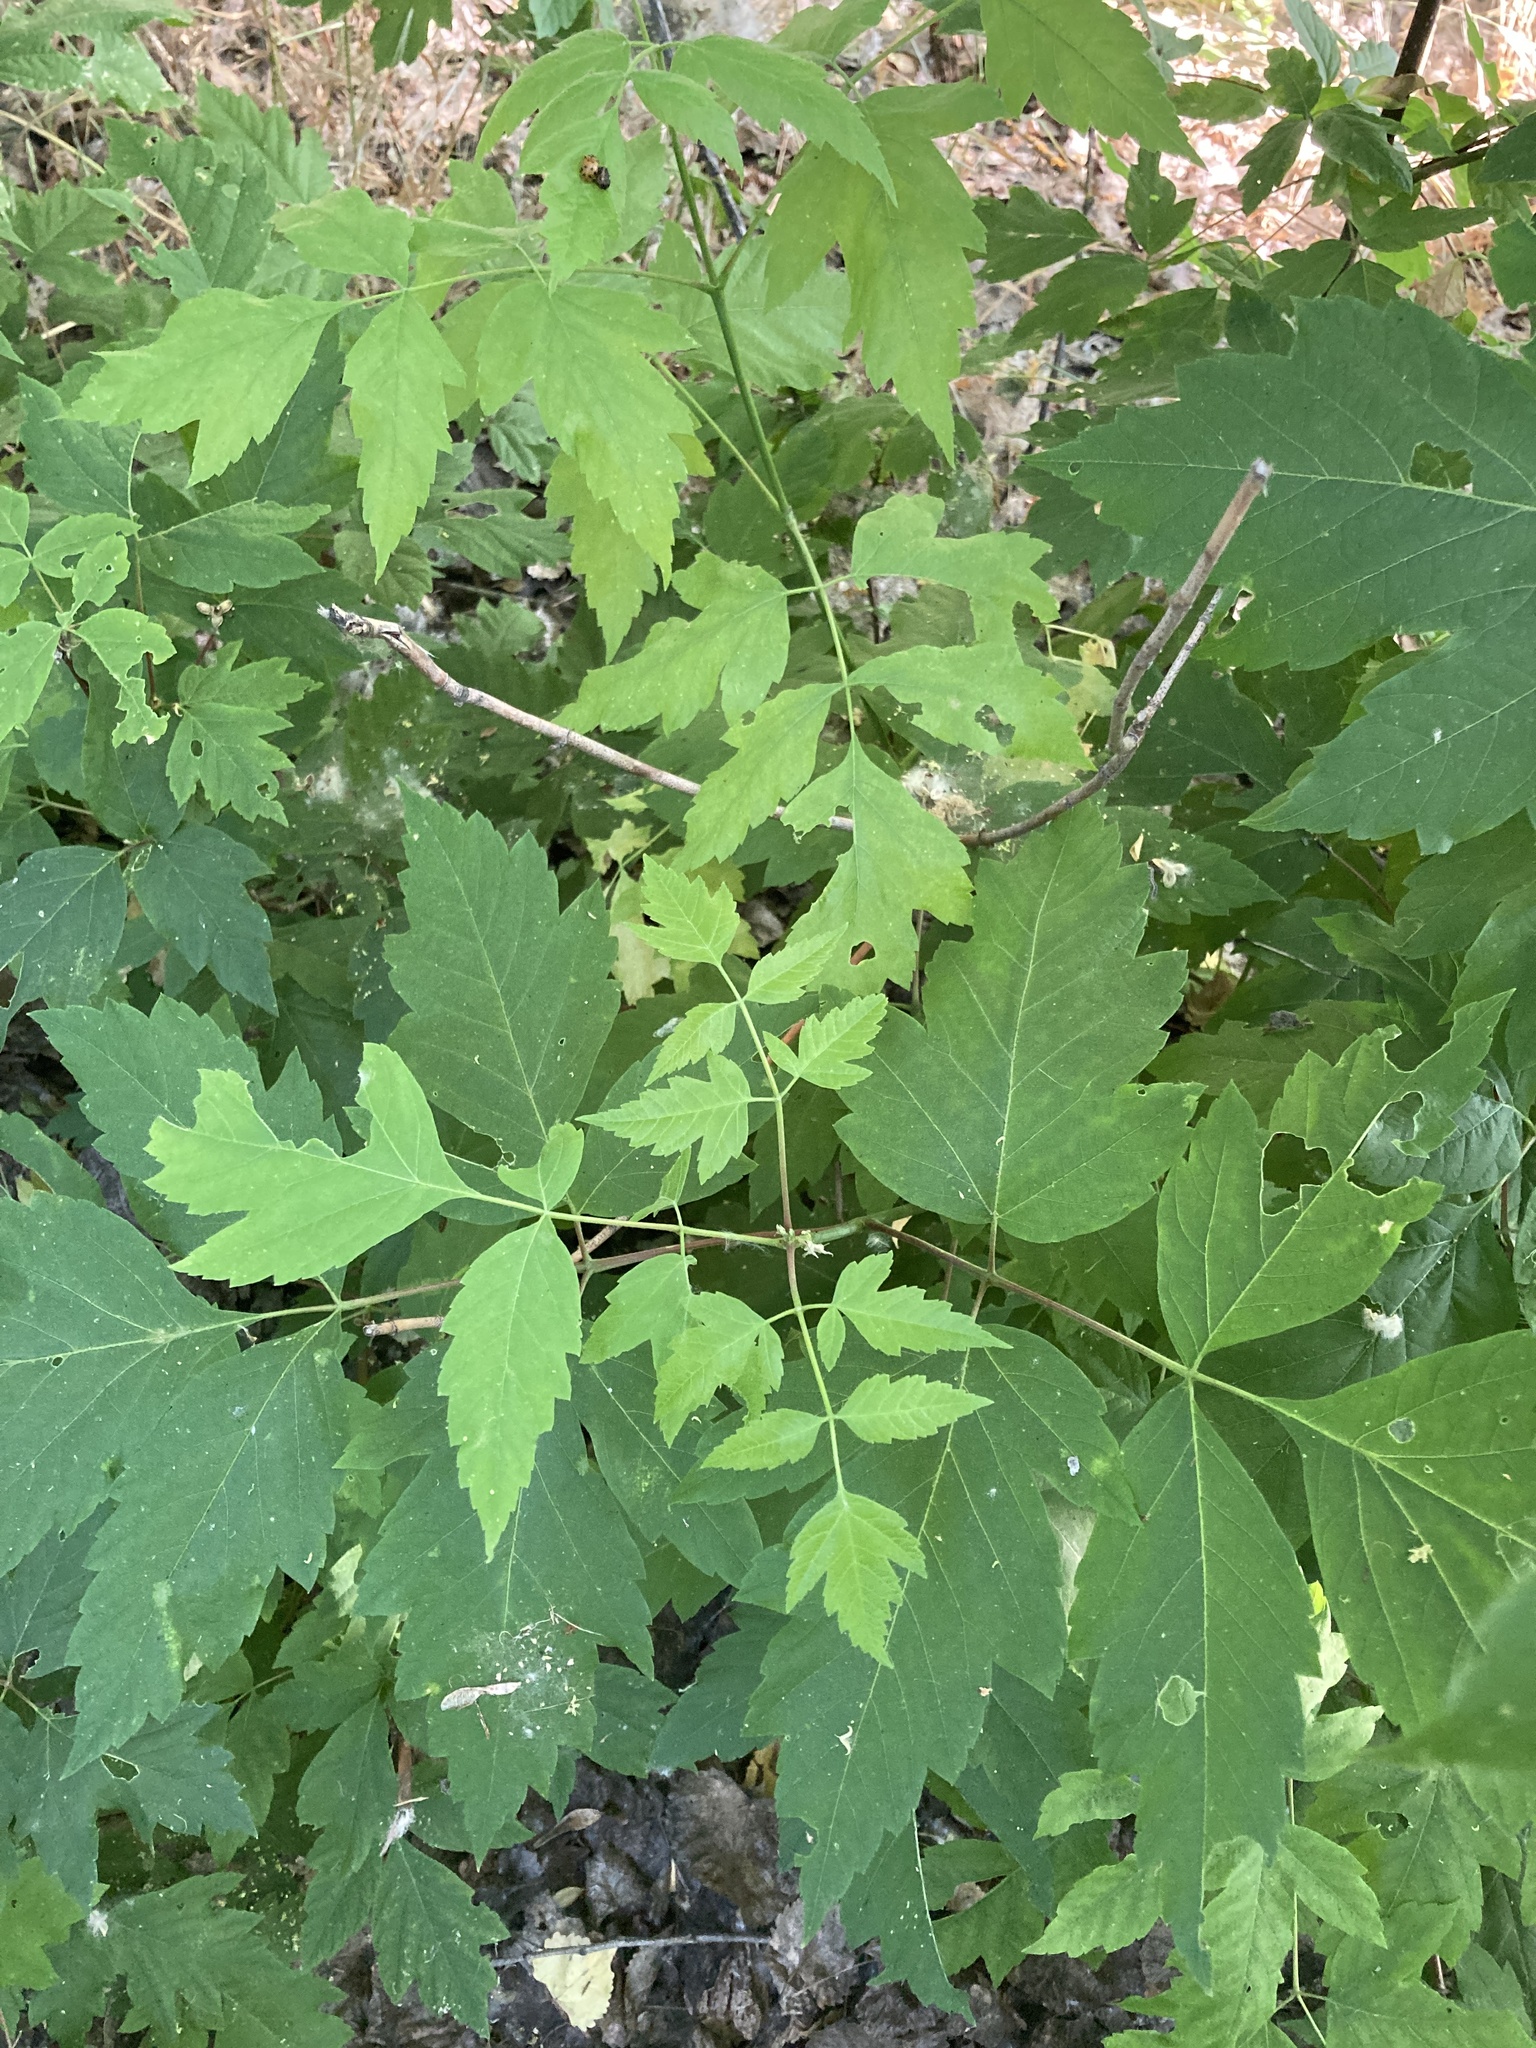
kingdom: Plantae
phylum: Tracheophyta
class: Magnoliopsida
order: Sapindales
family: Sapindaceae
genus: Acer
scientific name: Acer negundo
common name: Ashleaf maple
